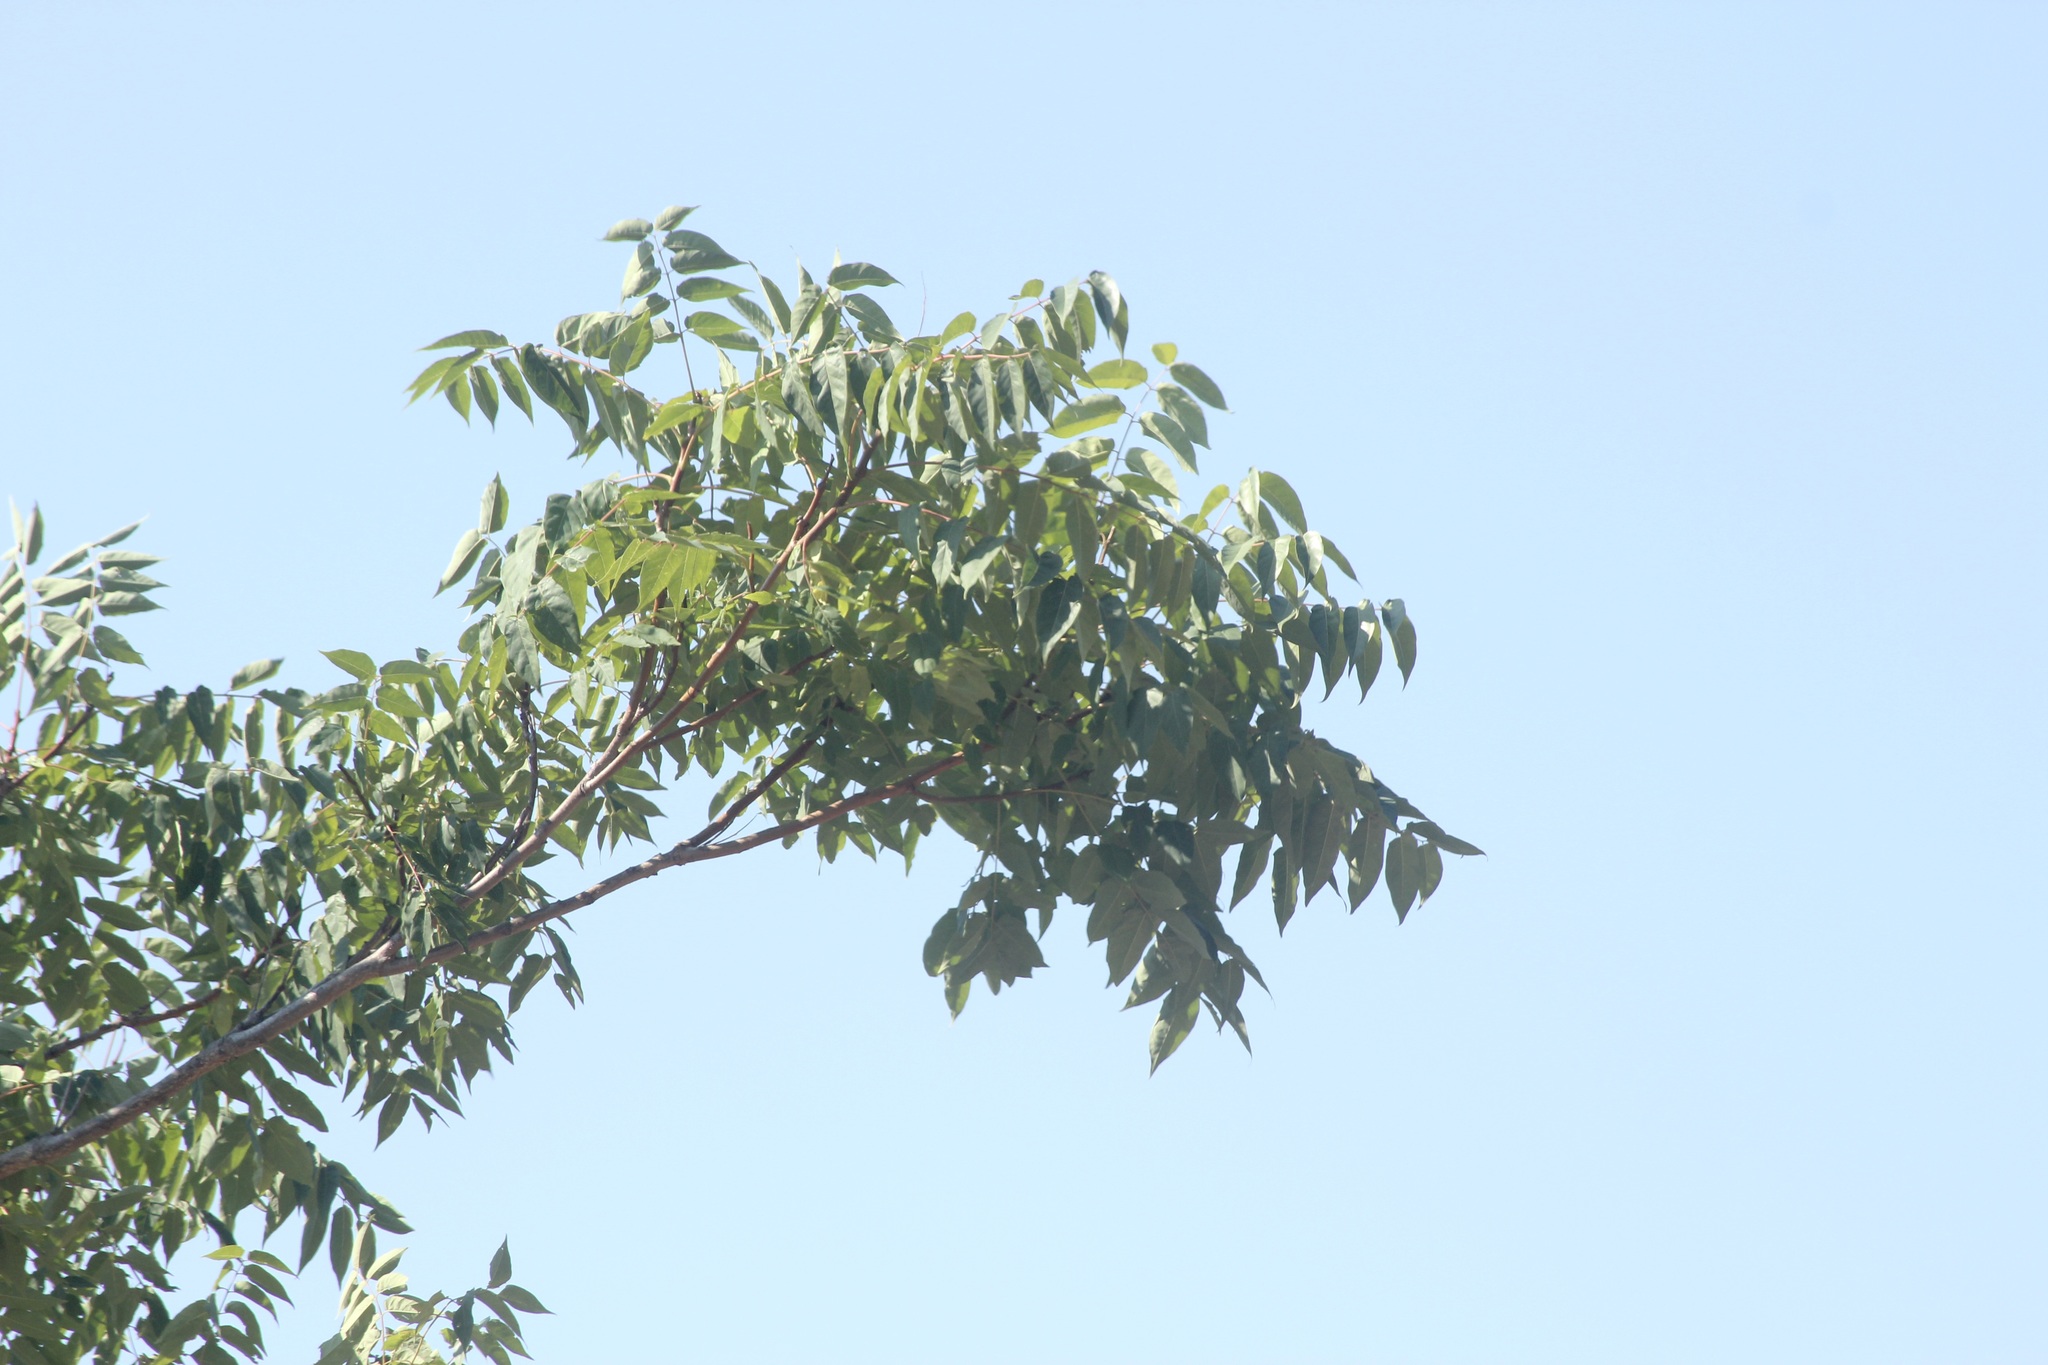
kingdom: Plantae
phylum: Tracheophyta
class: Magnoliopsida
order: Sapindales
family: Simaroubaceae
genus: Ailanthus
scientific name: Ailanthus altissima
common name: Tree-of-heaven
